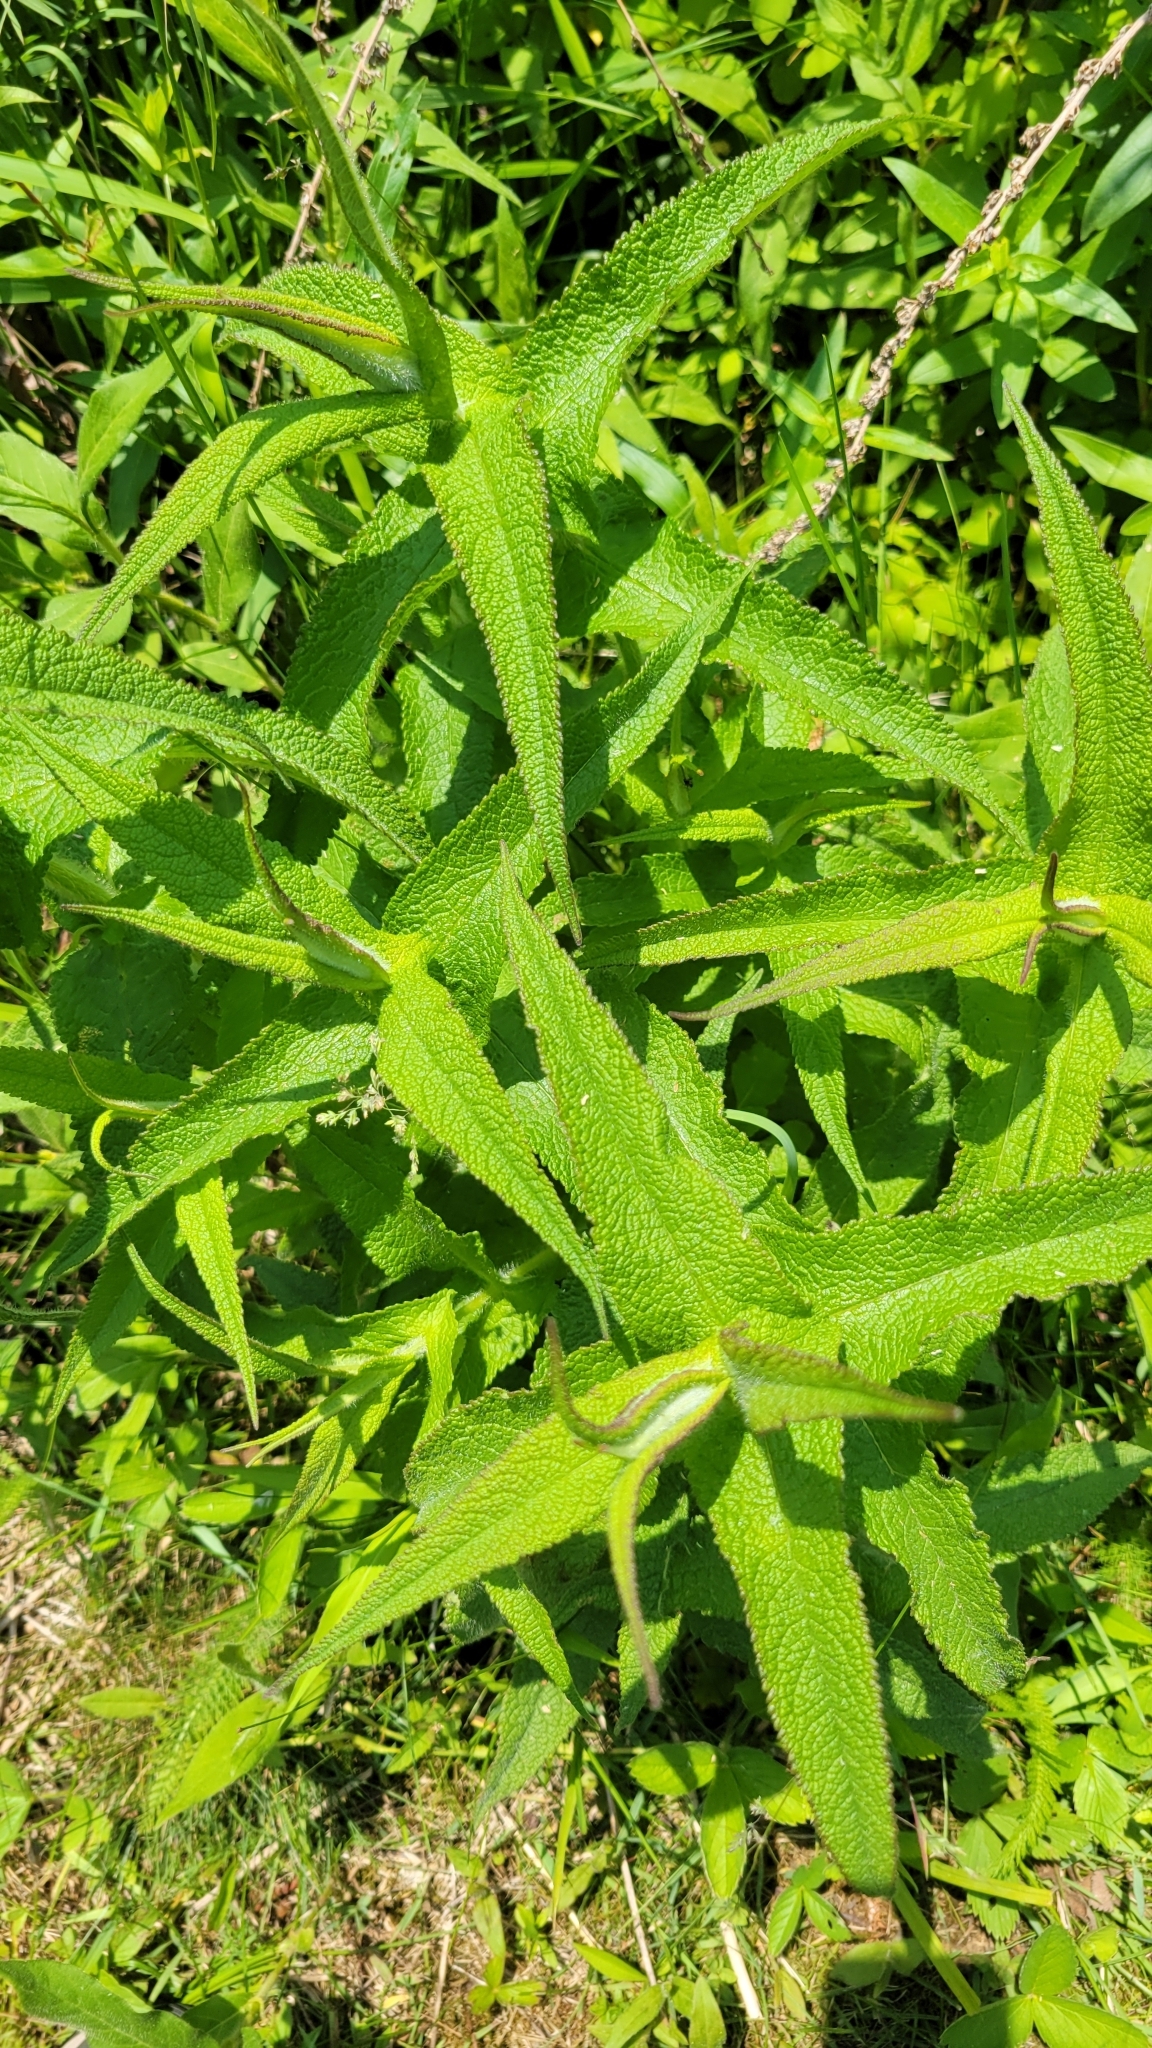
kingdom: Plantae
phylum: Tracheophyta
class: Magnoliopsida
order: Asterales
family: Asteraceae
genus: Eupatorium
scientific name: Eupatorium perfoliatum
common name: Boneset
